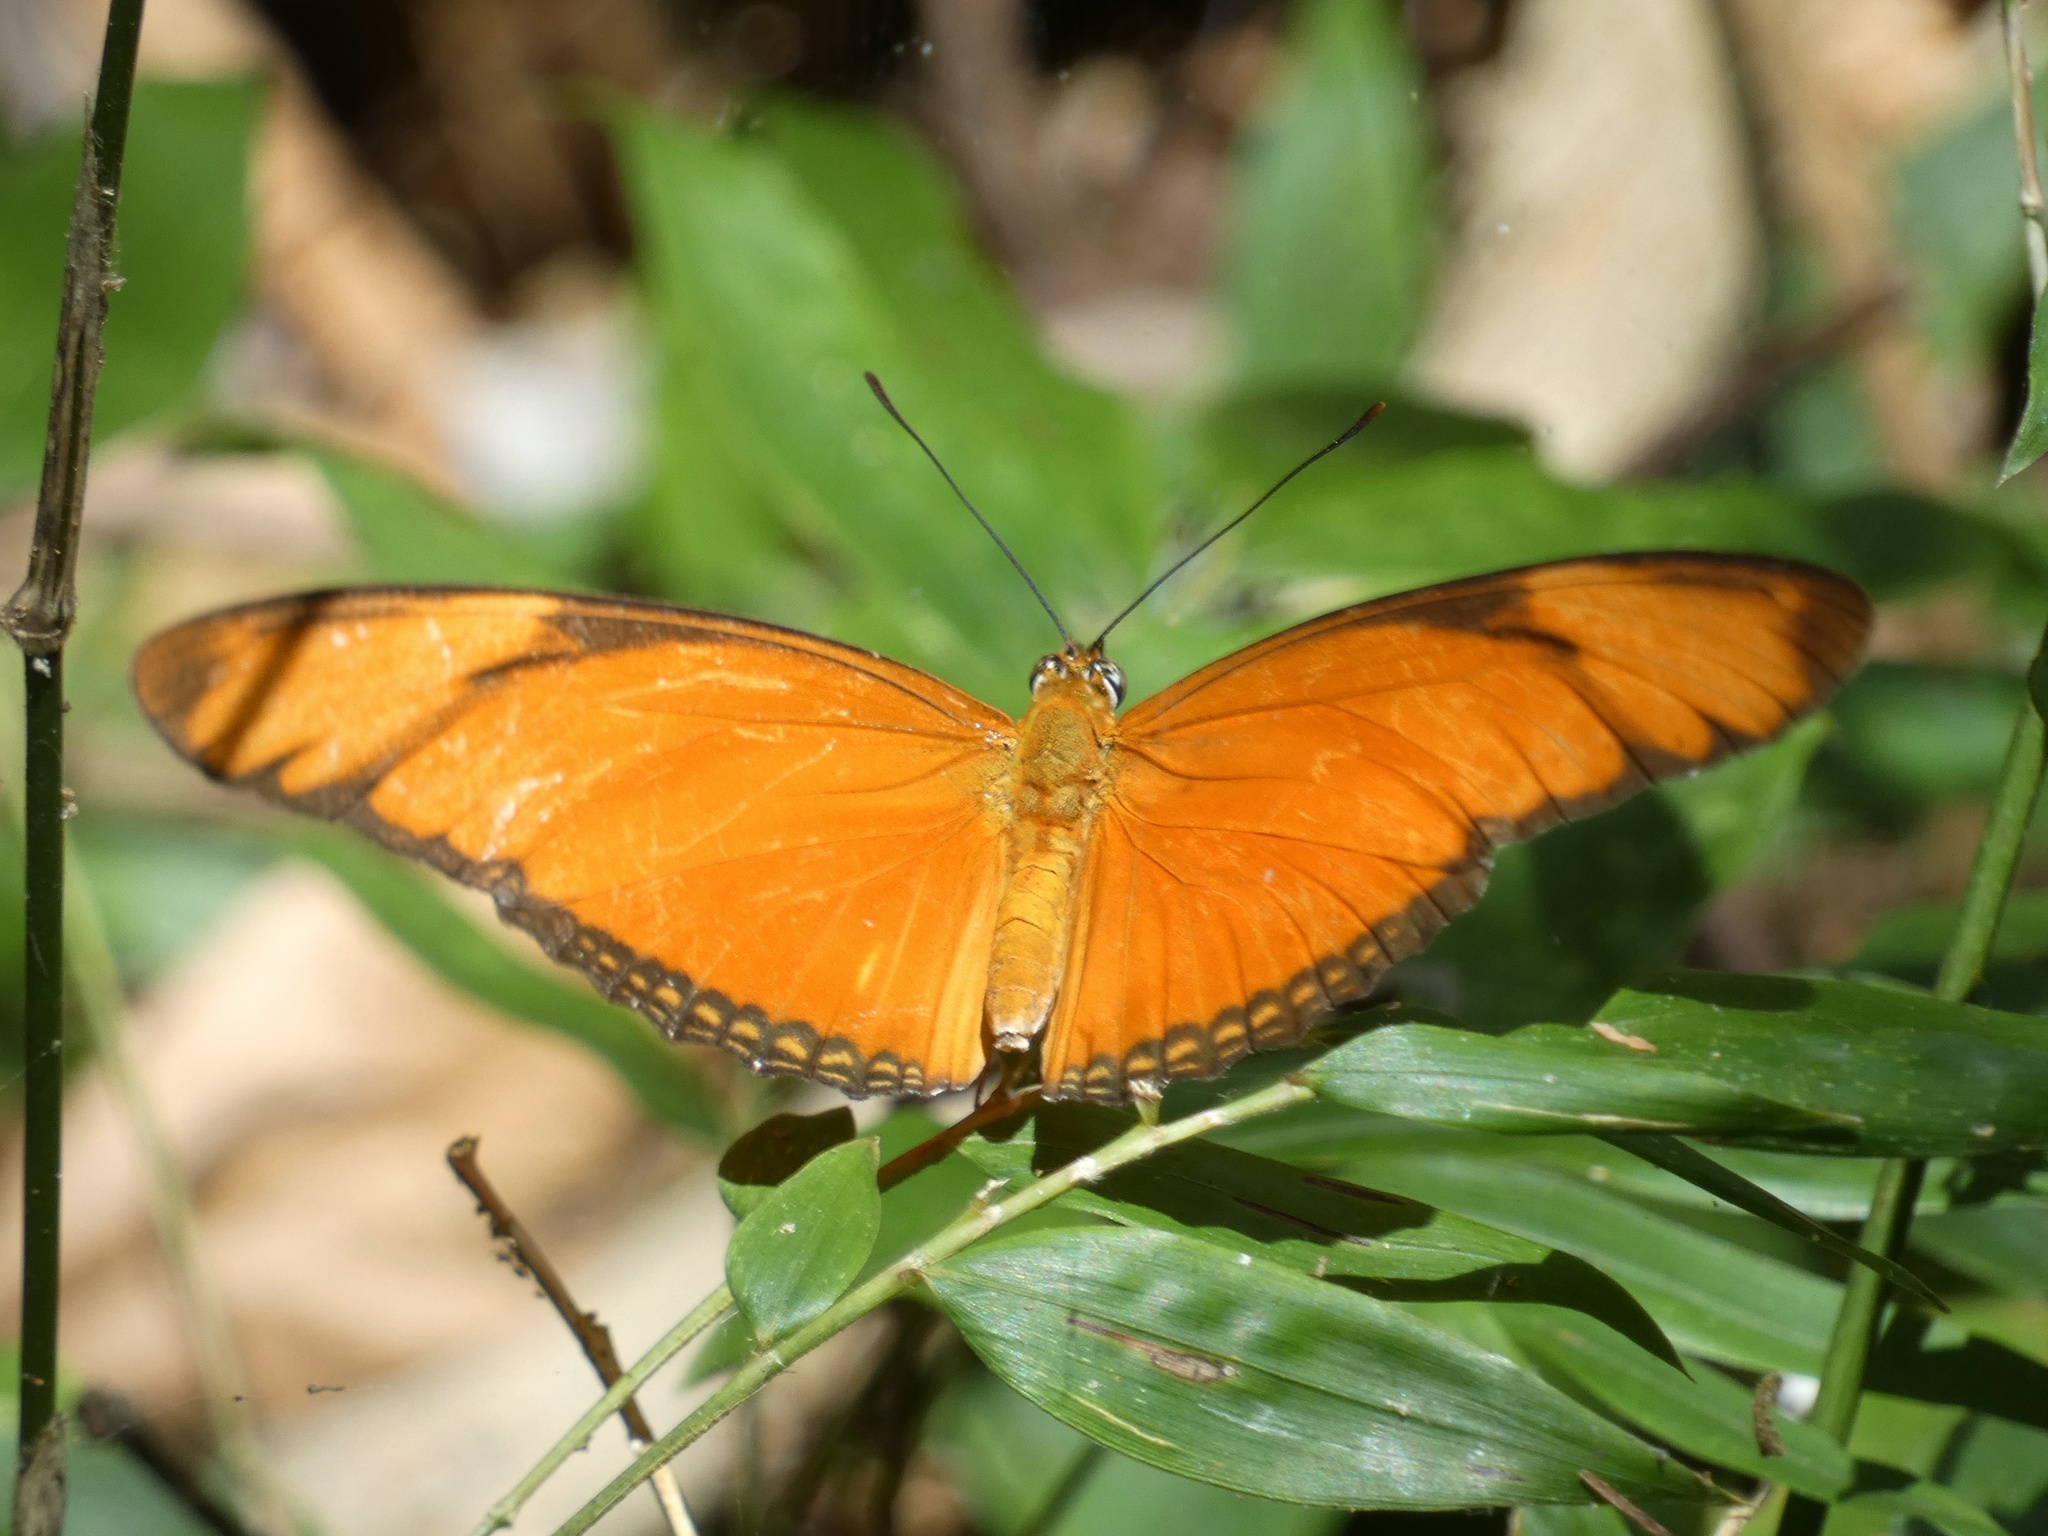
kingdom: Animalia
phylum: Arthropoda
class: Insecta
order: Lepidoptera
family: Nymphalidae
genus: Dryas
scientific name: Dryas iulia
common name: Flambeau
